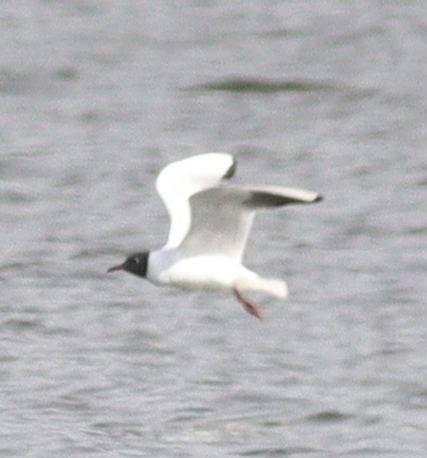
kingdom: Animalia
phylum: Chordata
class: Aves
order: Charadriiformes
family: Laridae
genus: Chroicocephalus
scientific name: Chroicocephalus ridibundus
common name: Black-headed gull
